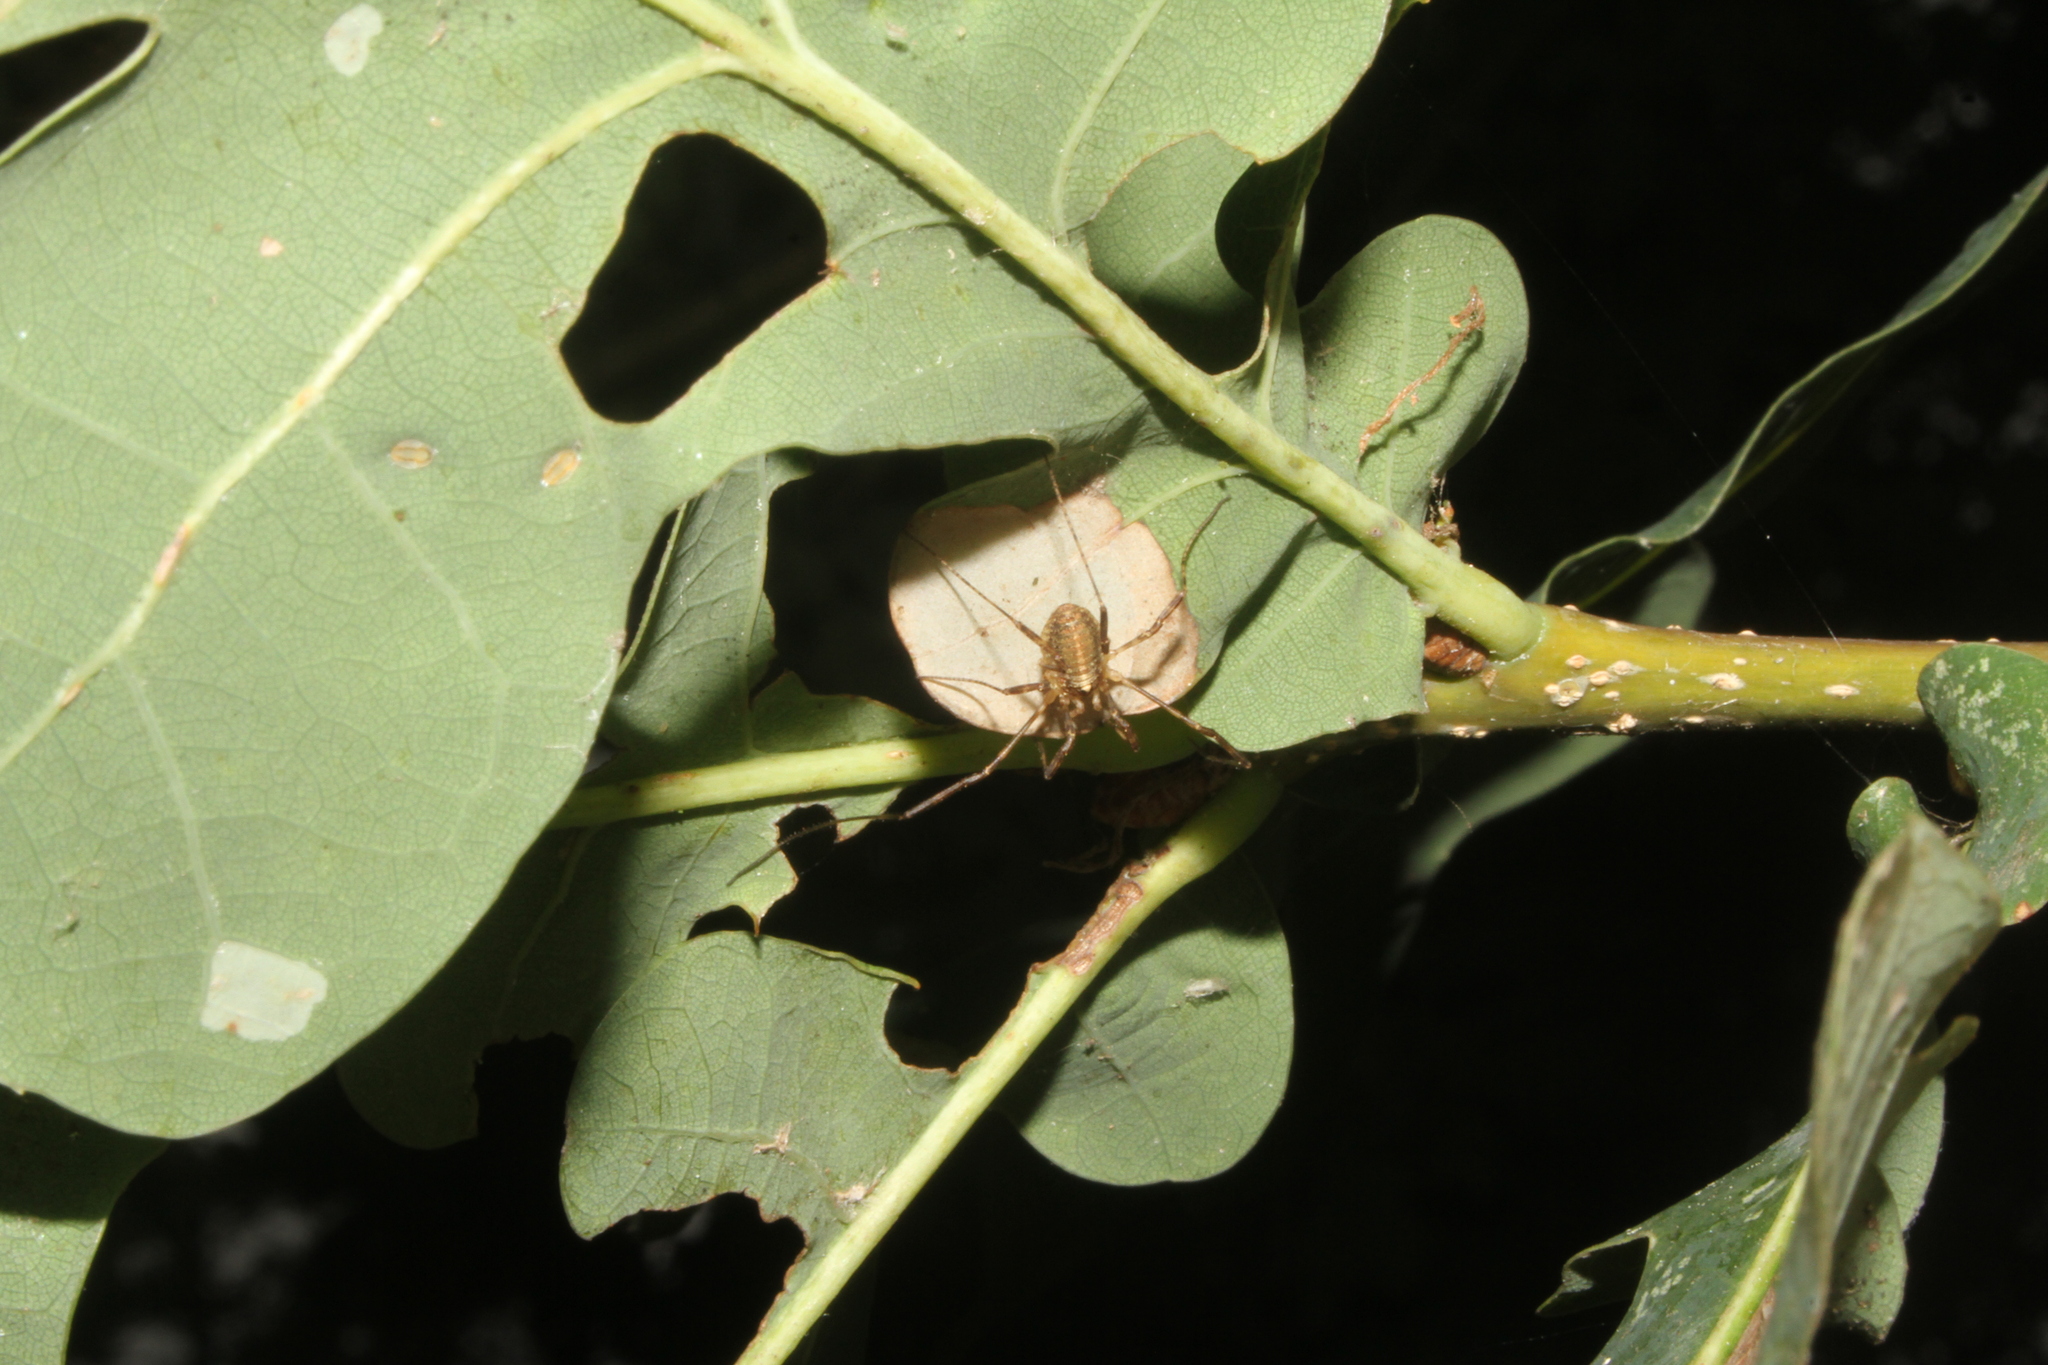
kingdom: Animalia
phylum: Arthropoda
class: Arachnida
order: Opiliones
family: Phalangiidae
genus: Paroligolophus
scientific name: Paroligolophus agrestis
